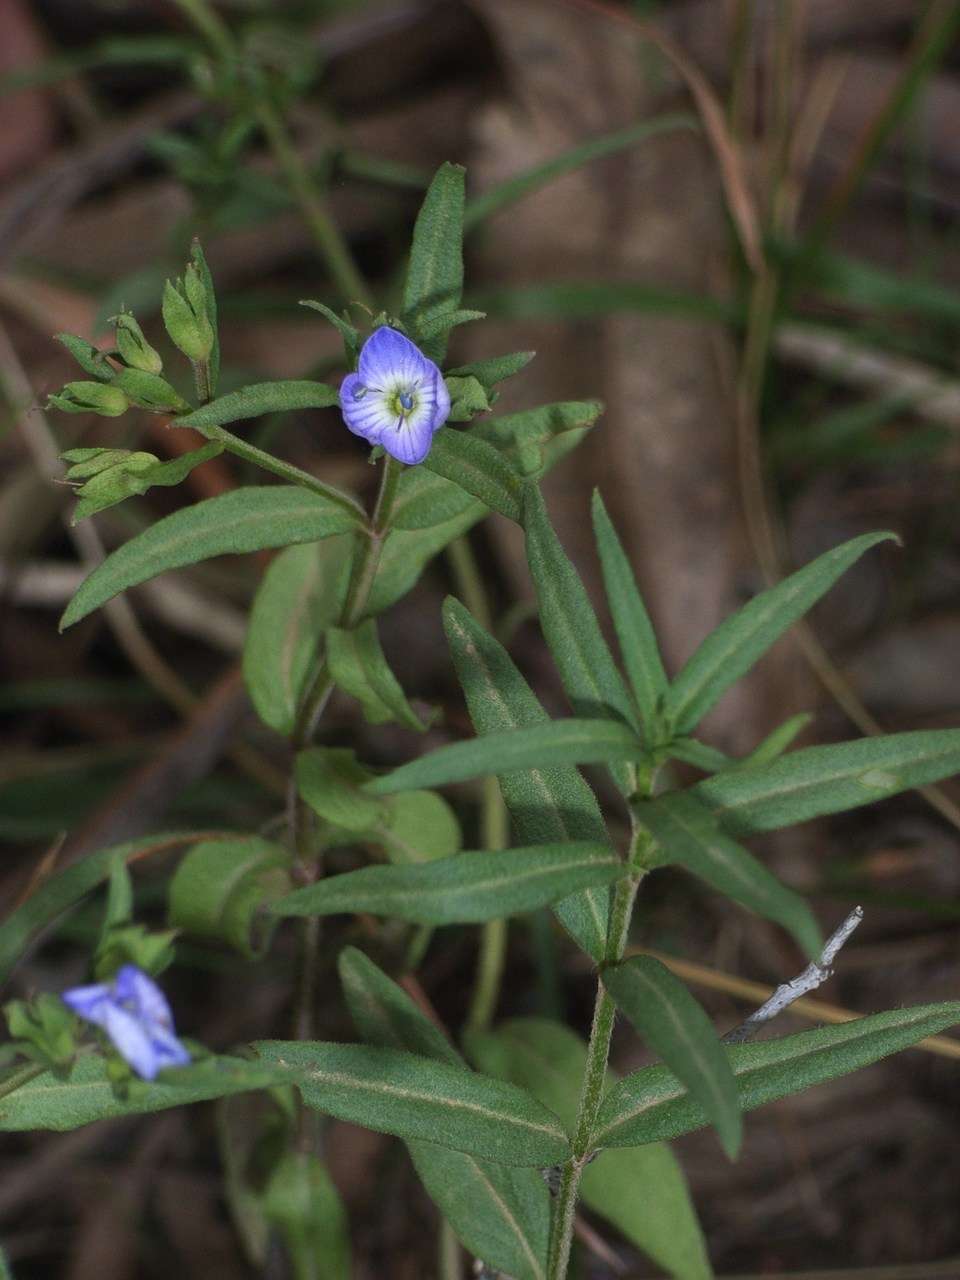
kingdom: Plantae
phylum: Tracheophyta
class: Magnoliopsida
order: Lamiales
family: Plantaginaceae
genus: Veronica
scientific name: Veronica gracilis
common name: Slender speedwell
